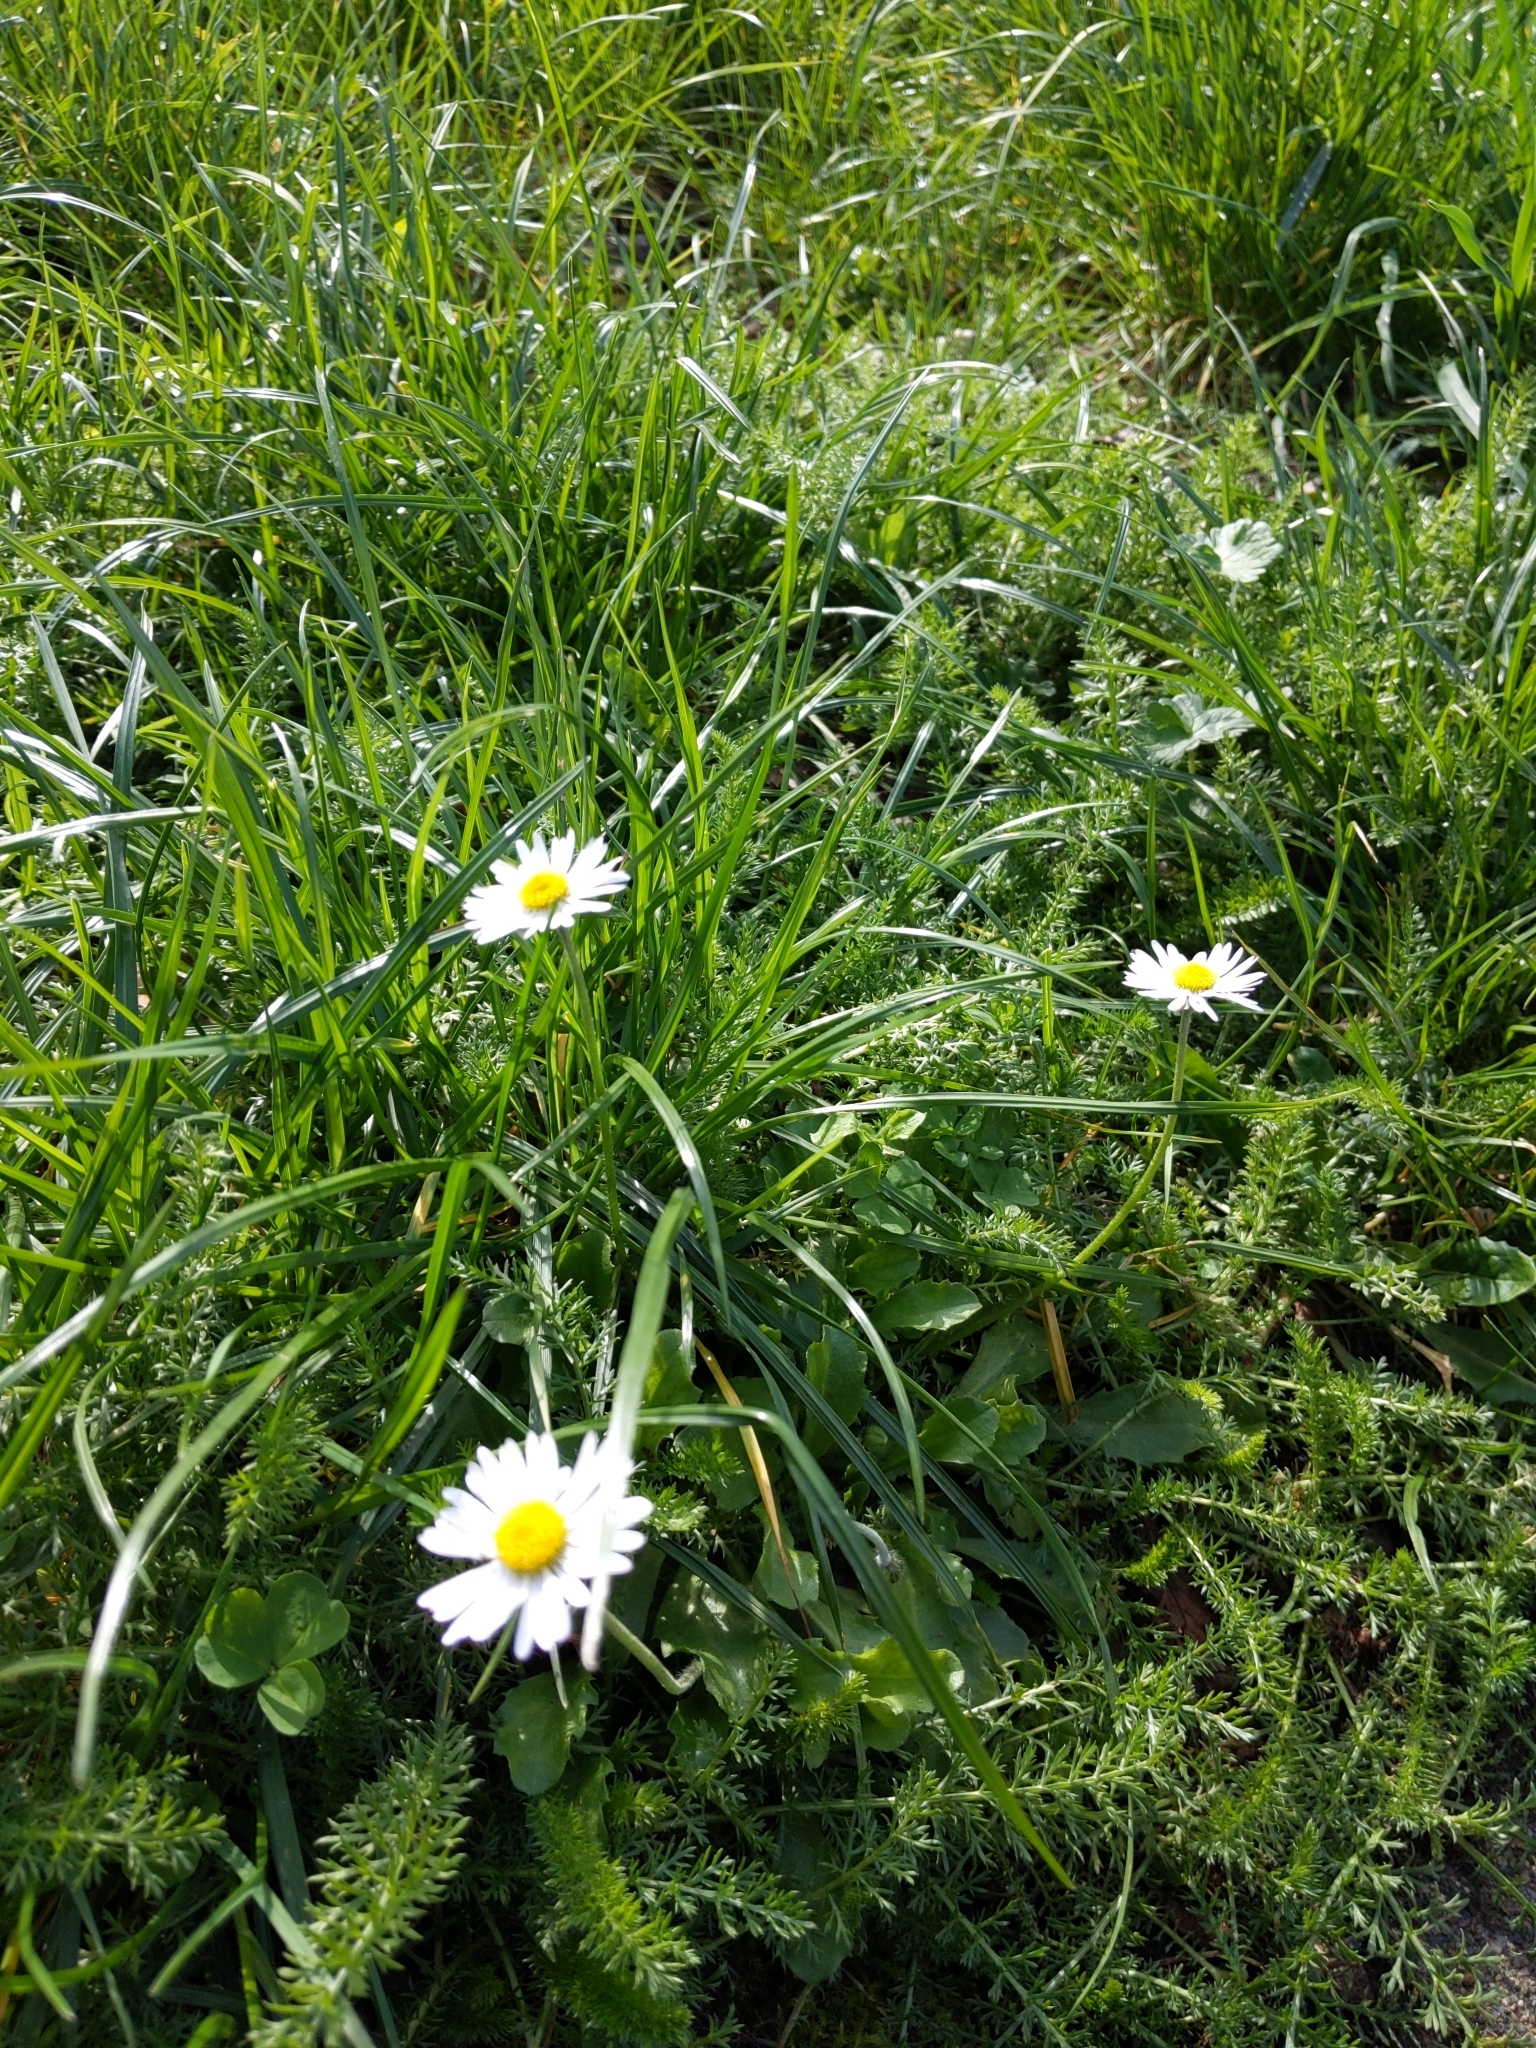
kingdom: Plantae
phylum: Tracheophyta
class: Magnoliopsida
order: Asterales
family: Asteraceae
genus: Bellis
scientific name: Bellis perennis
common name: Lawndaisy
